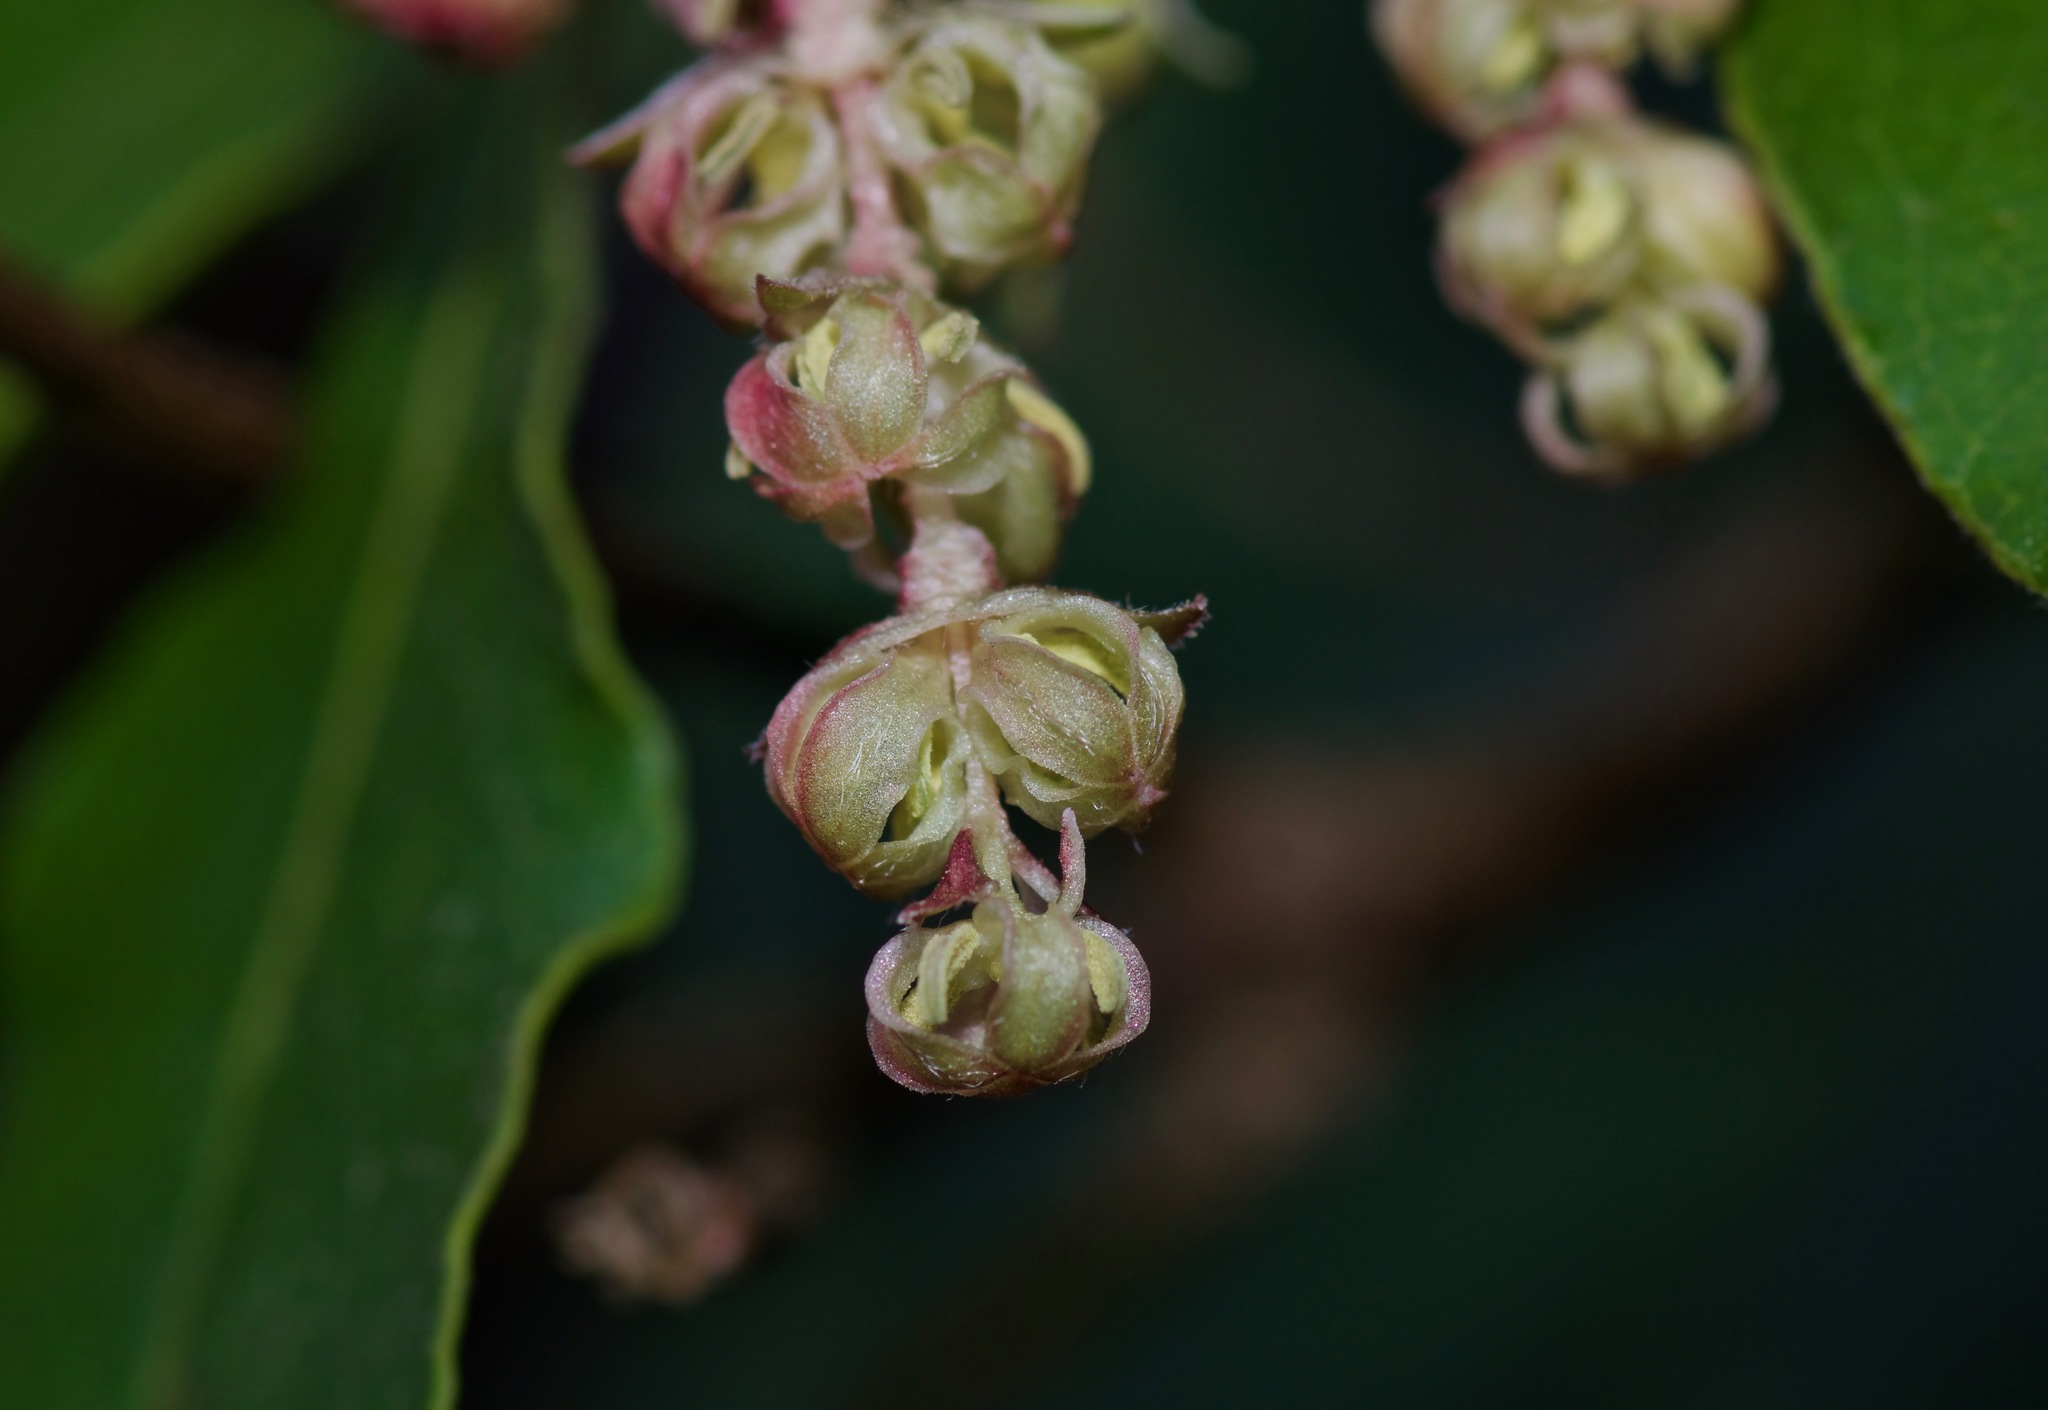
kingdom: Plantae
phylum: Tracheophyta
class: Magnoliopsida
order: Garryales
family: Garryaceae
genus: Garrya
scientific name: Garrya lindheimeri
